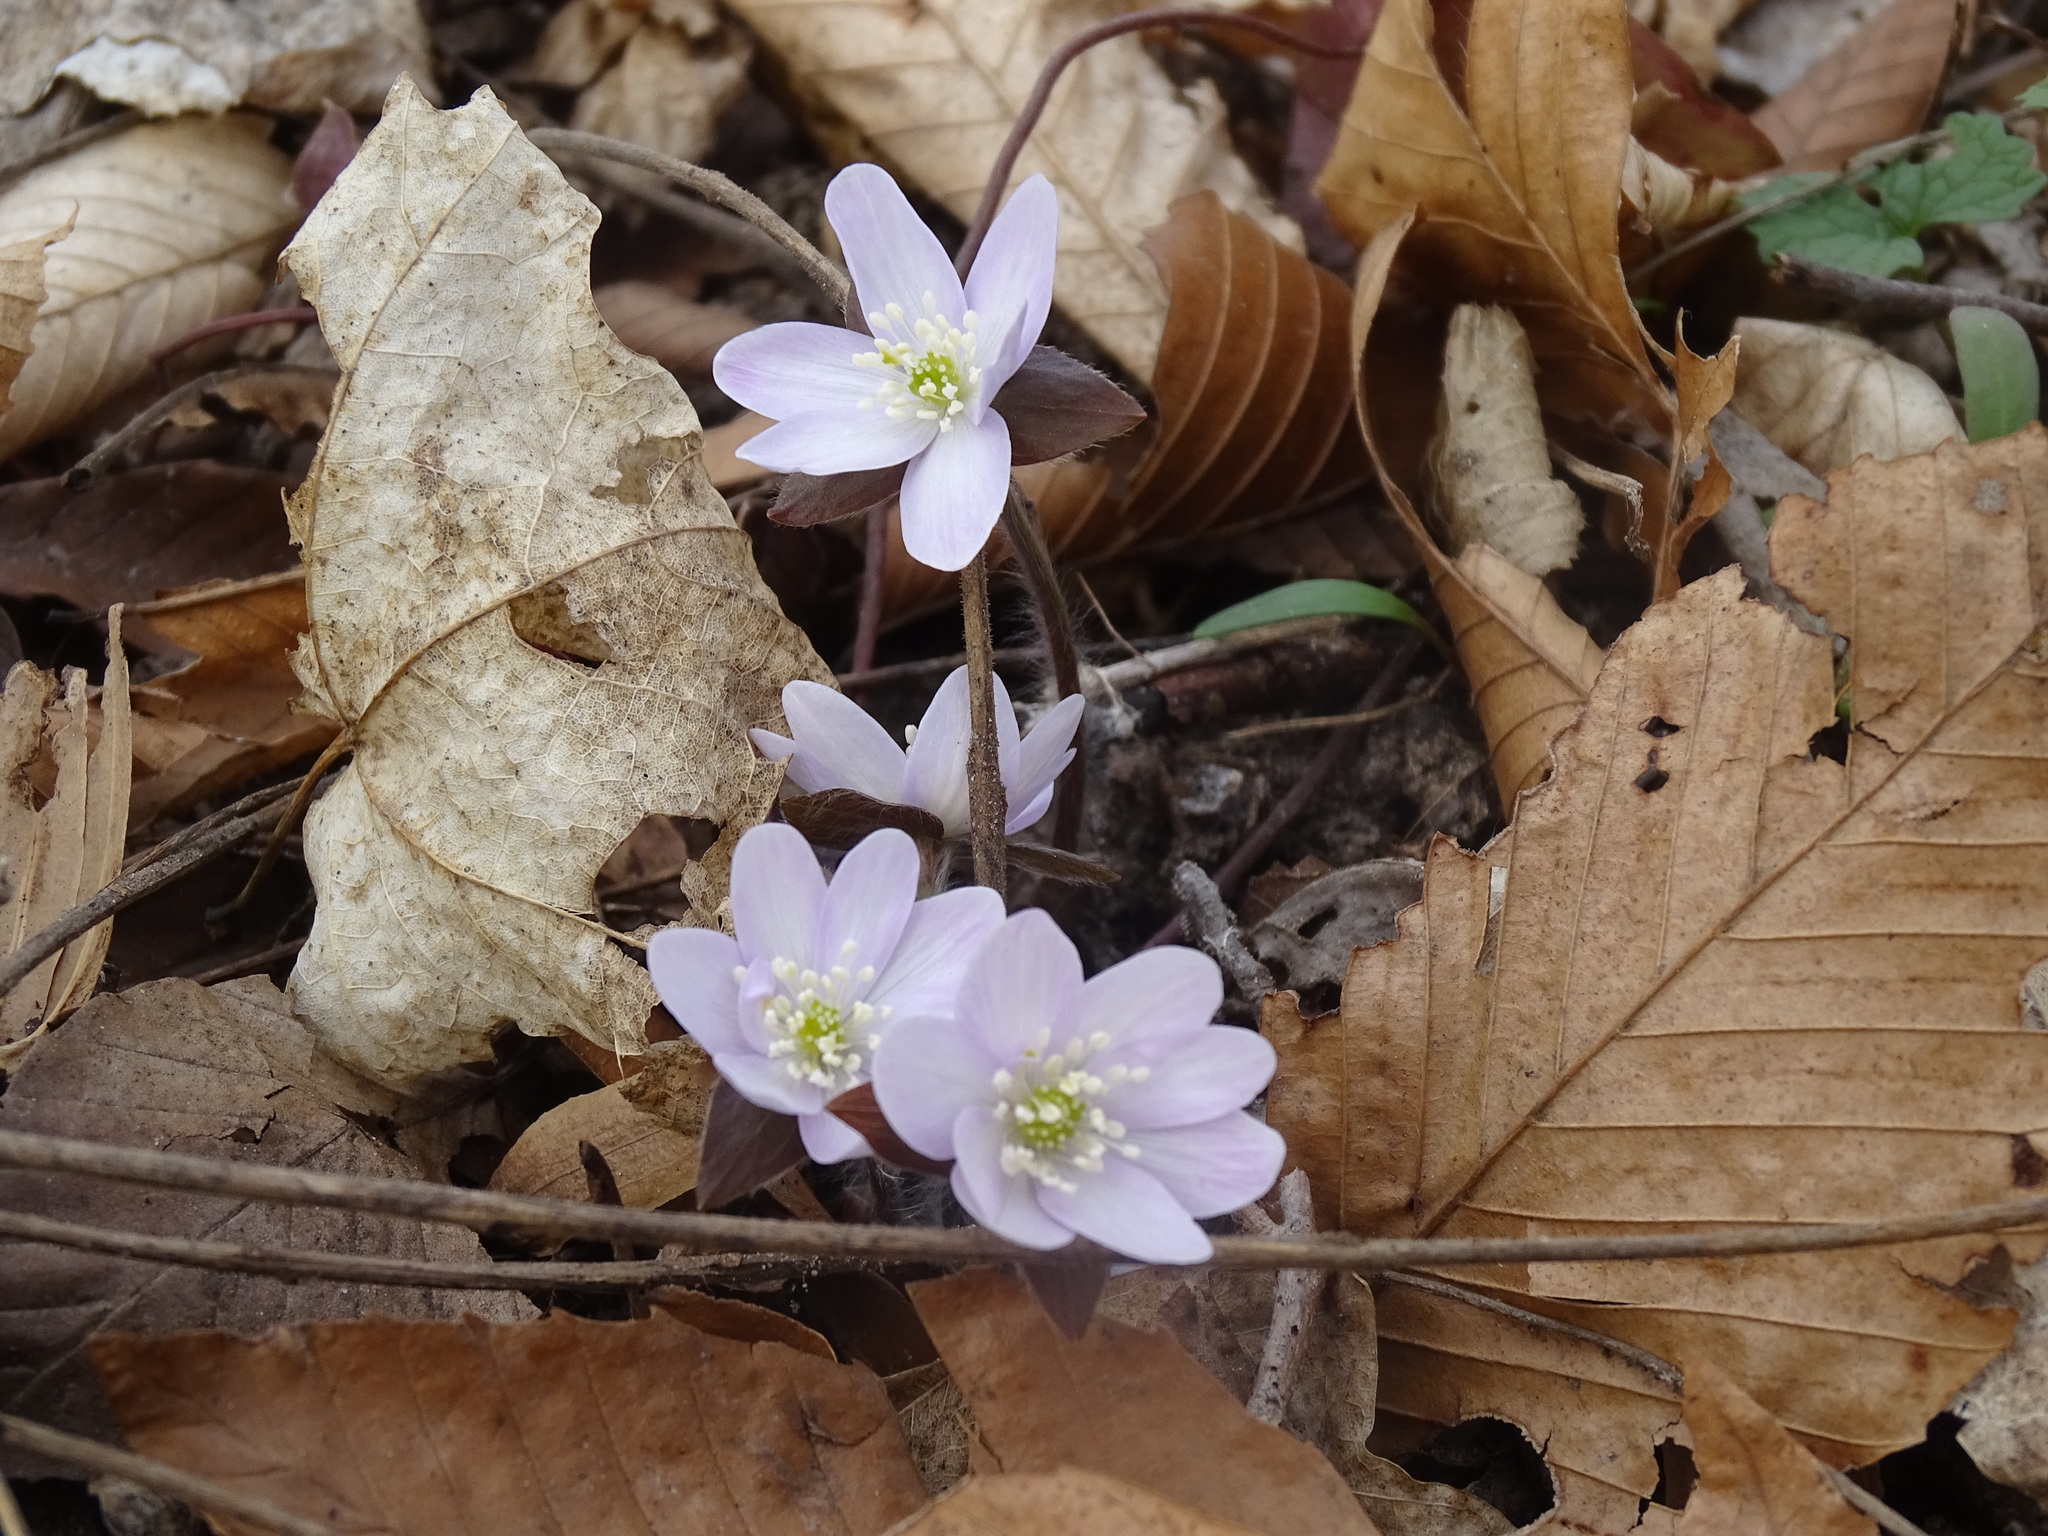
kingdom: Plantae
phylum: Tracheophyta
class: Magnoliopsida
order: Ranunculales
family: Ranunculaceae
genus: Hepatica
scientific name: Hepatica acutiloba
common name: Sharp-lobed hepatica
